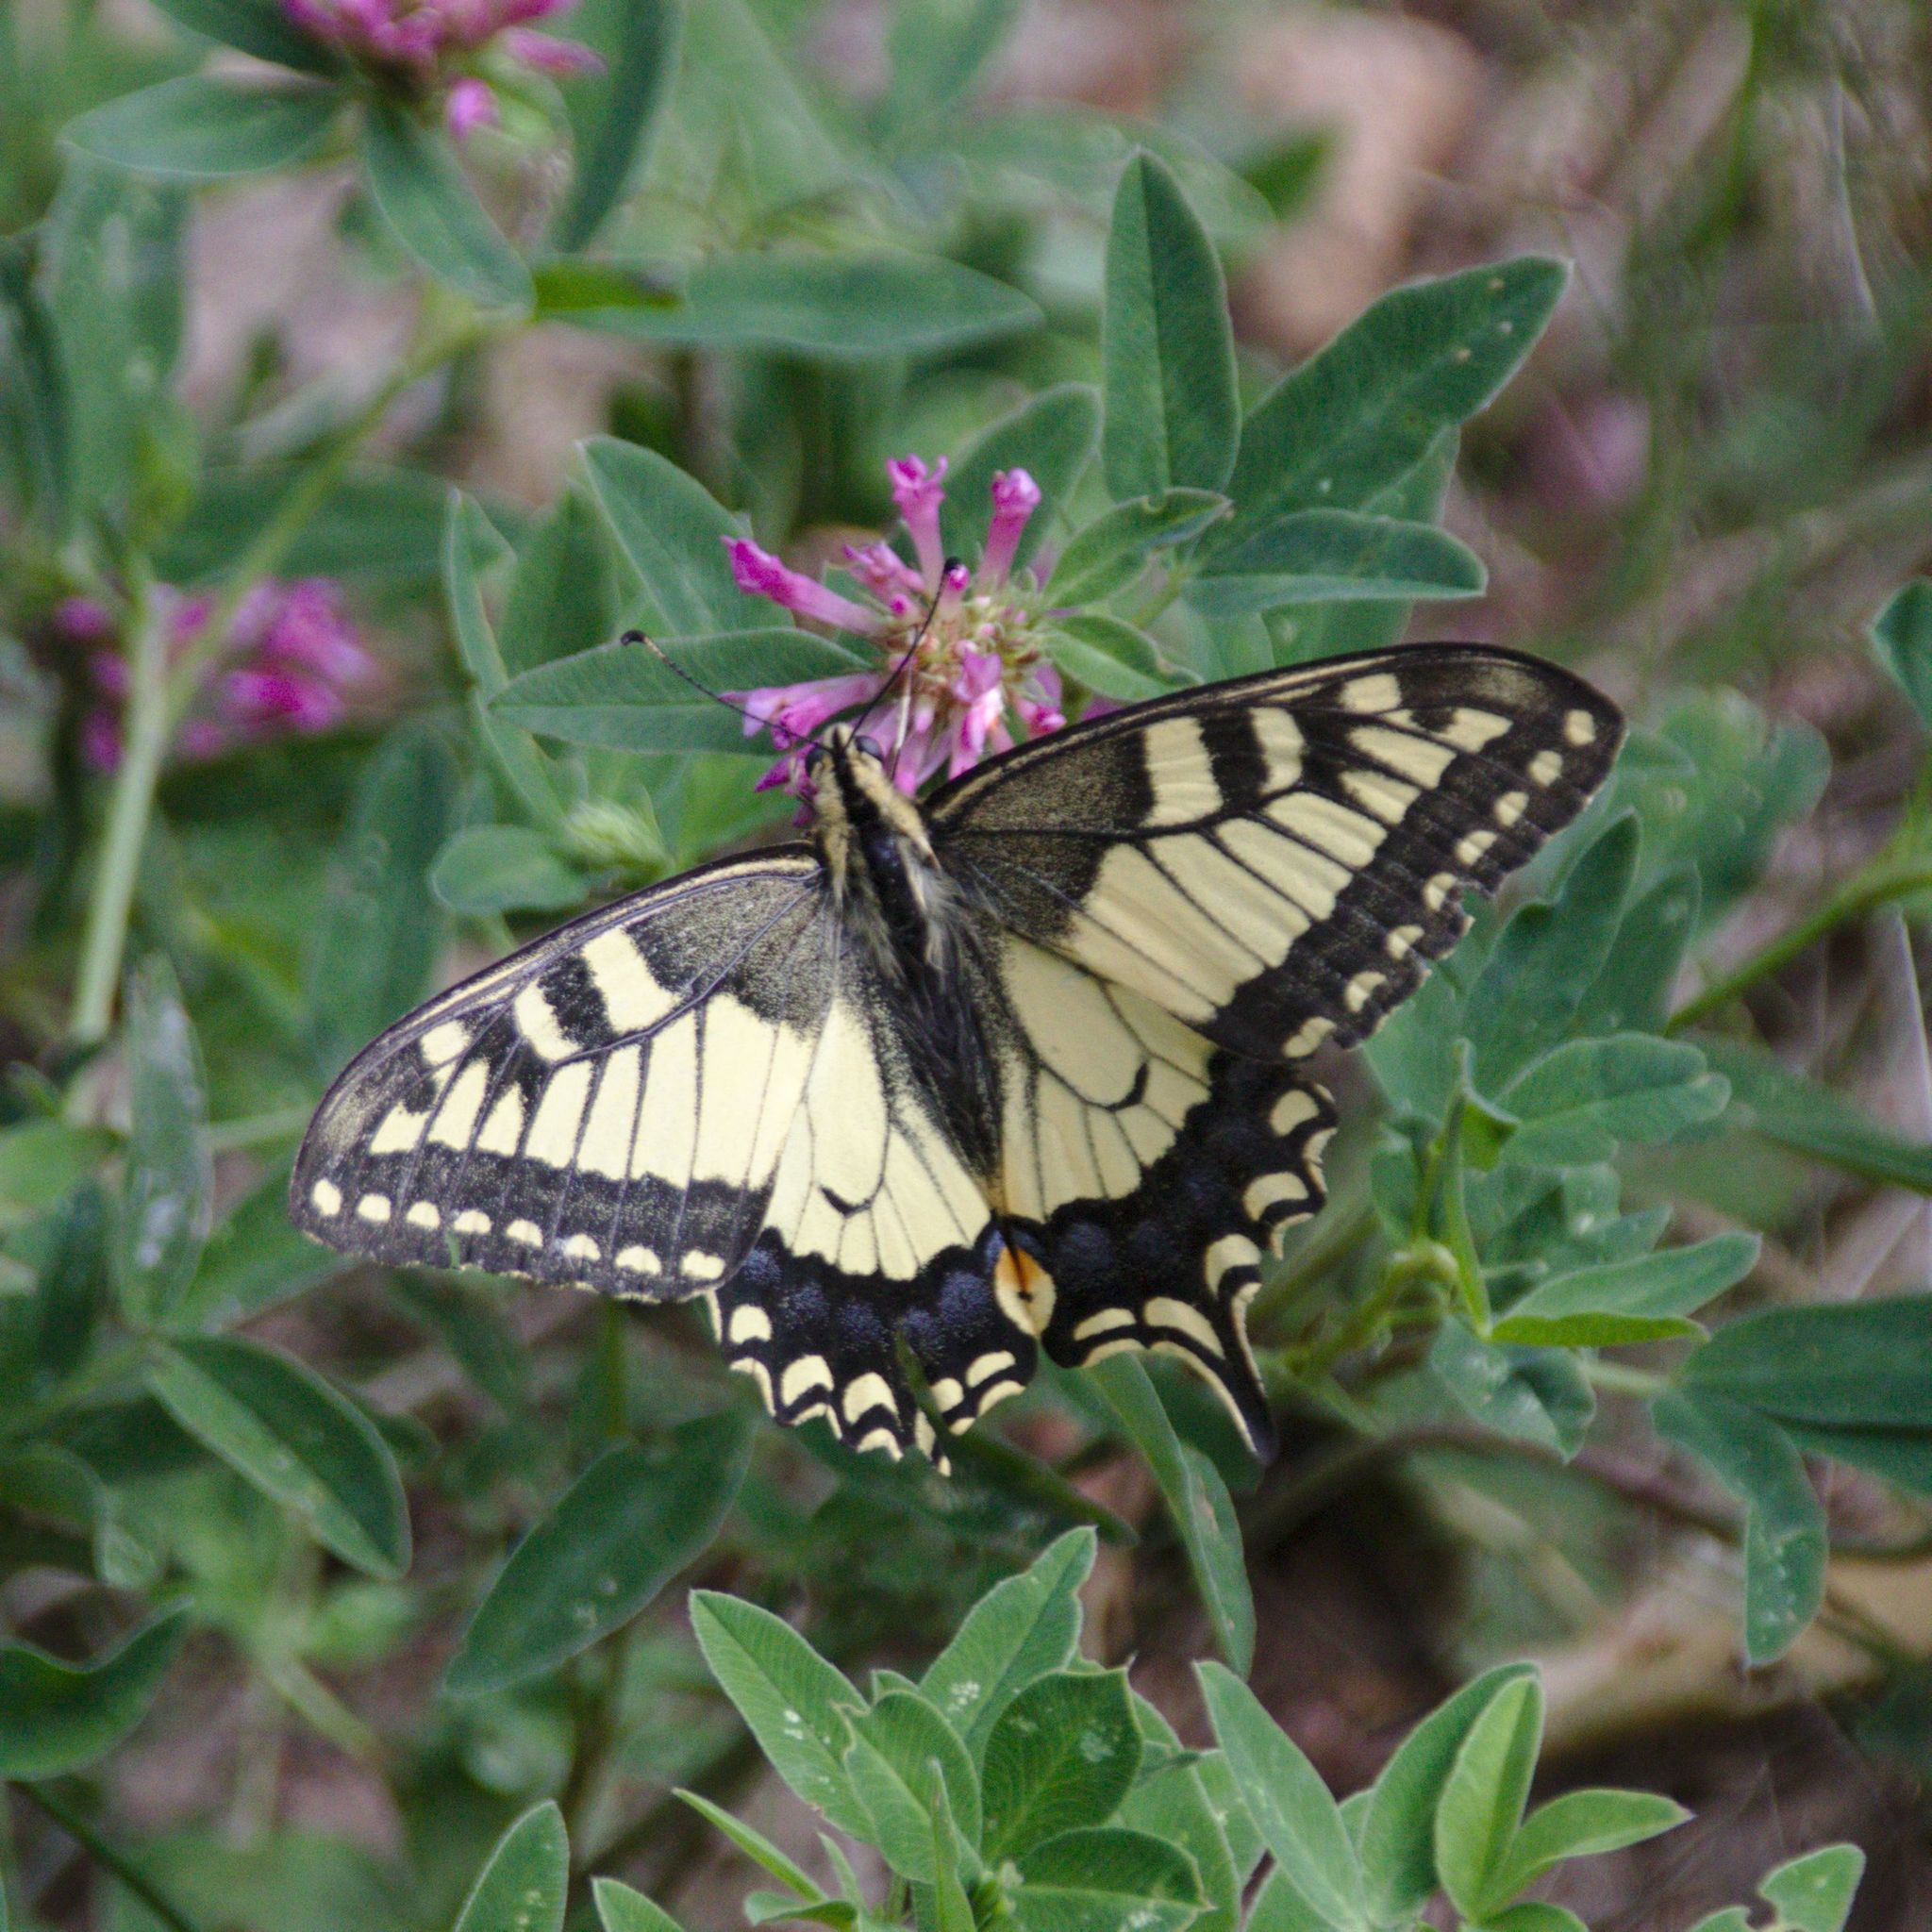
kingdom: Animalia
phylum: Arthropoda
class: Insecta
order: Lepidoptera
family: Papilionidae
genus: Papilio
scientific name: Papilio machaon
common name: Swallowtail
